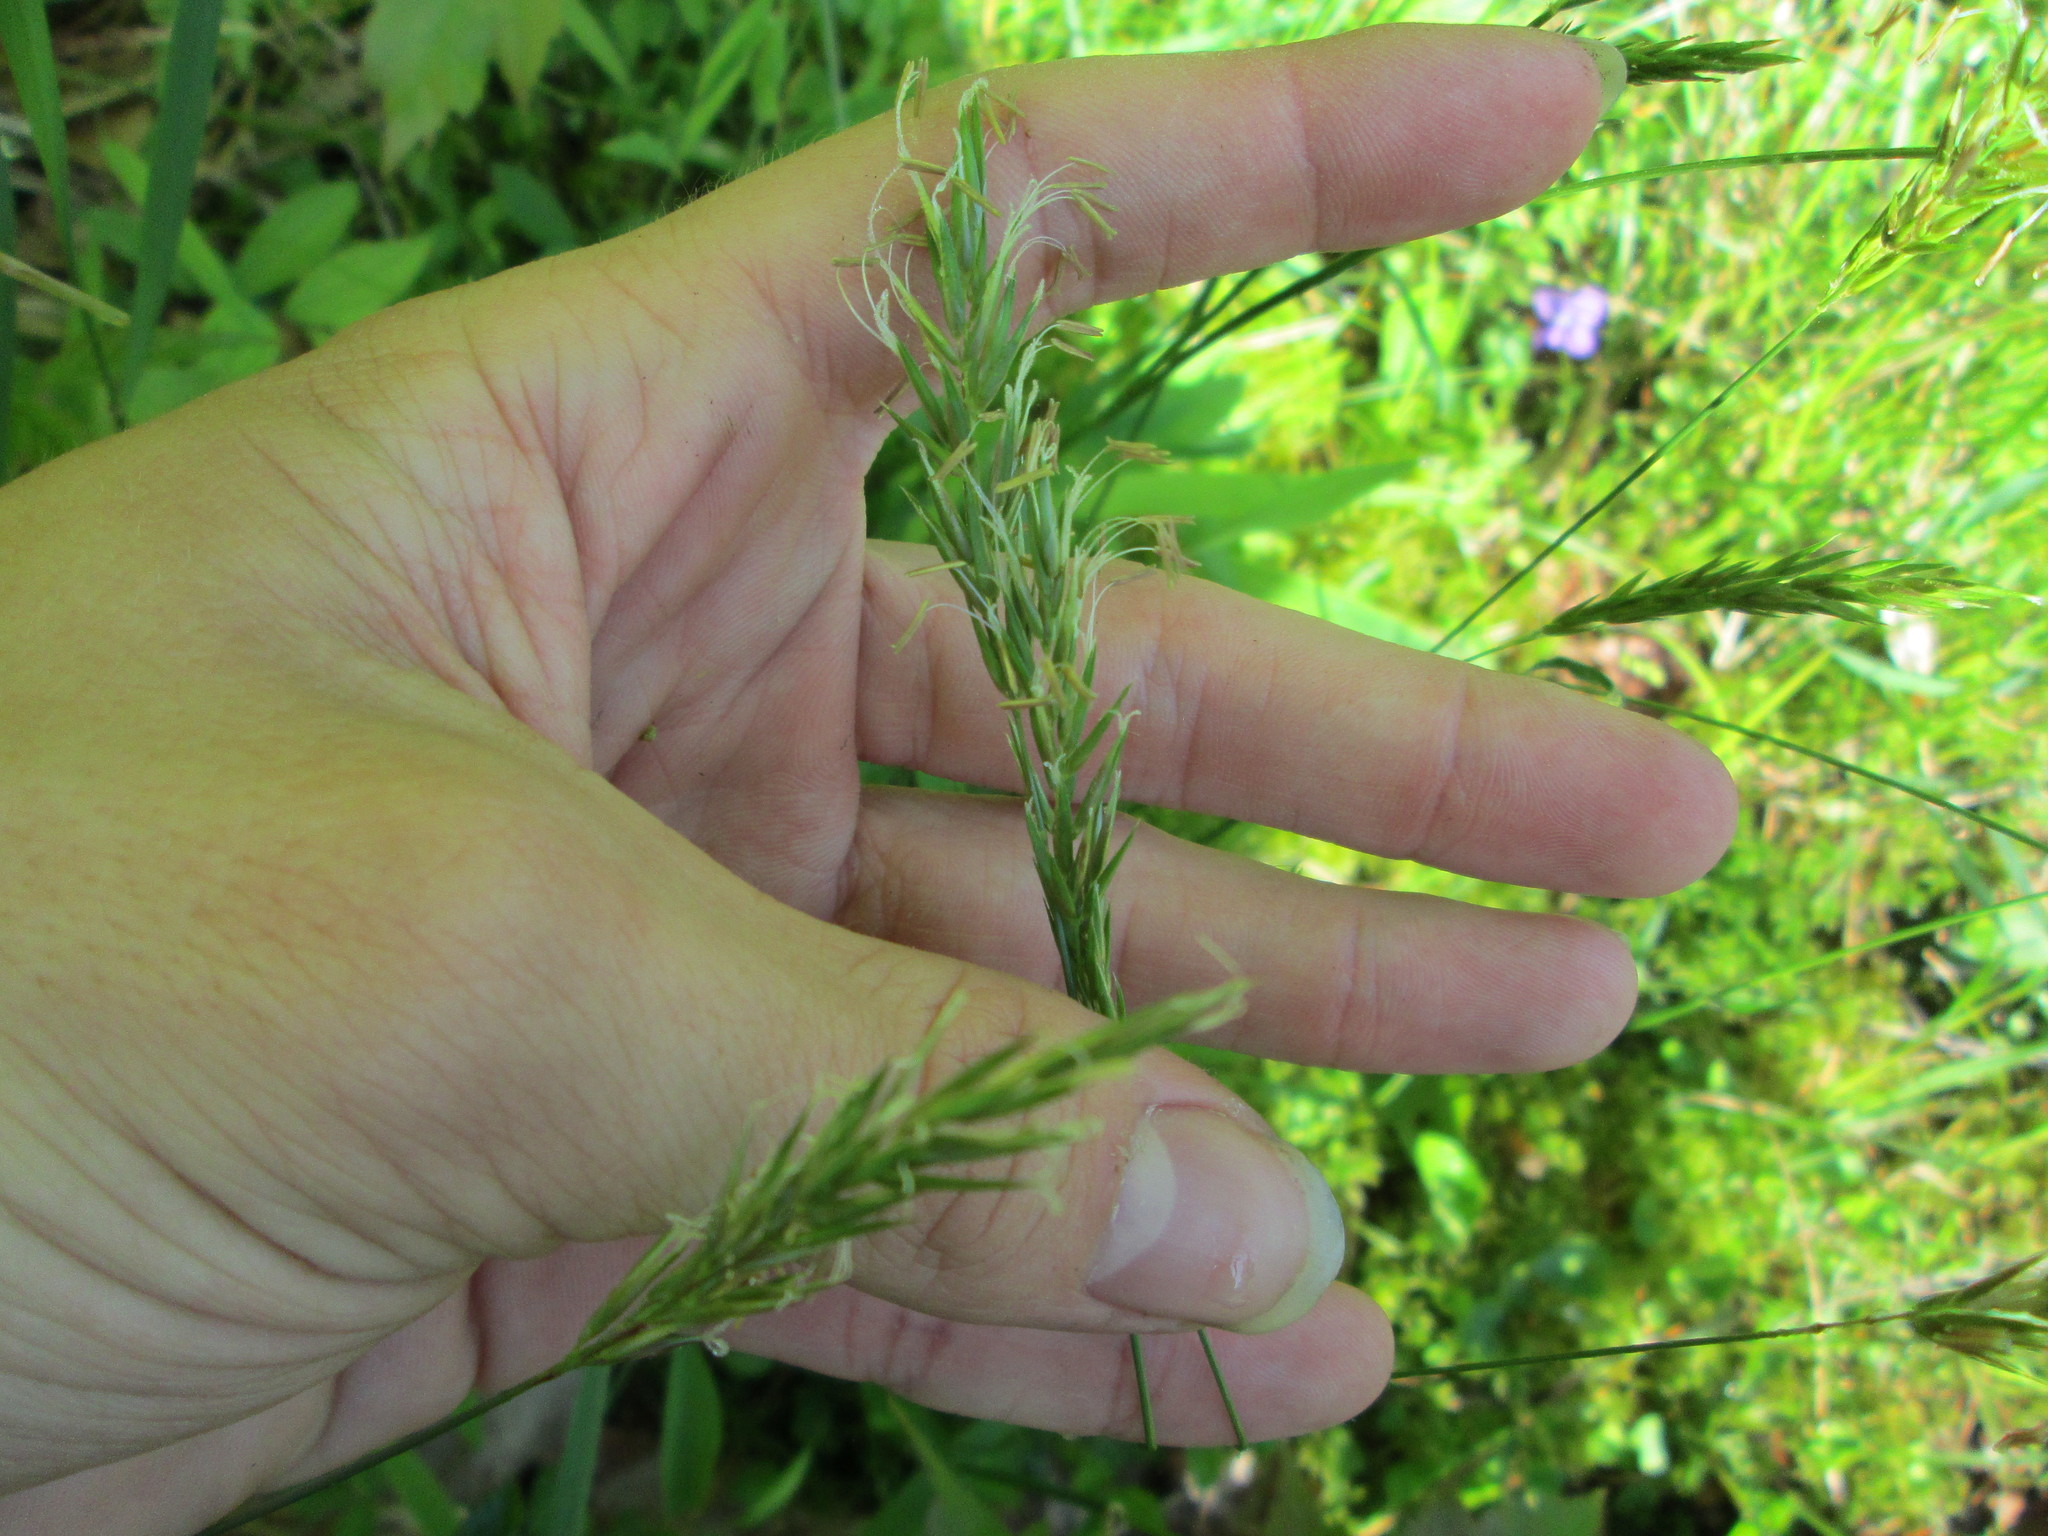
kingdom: Plantae
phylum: Tracheophyta
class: Liliopsida
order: Poales
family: Poaceae
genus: Anthoxanthum
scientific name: Anthoxanthum odoratum
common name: Sweet vernalgrass
